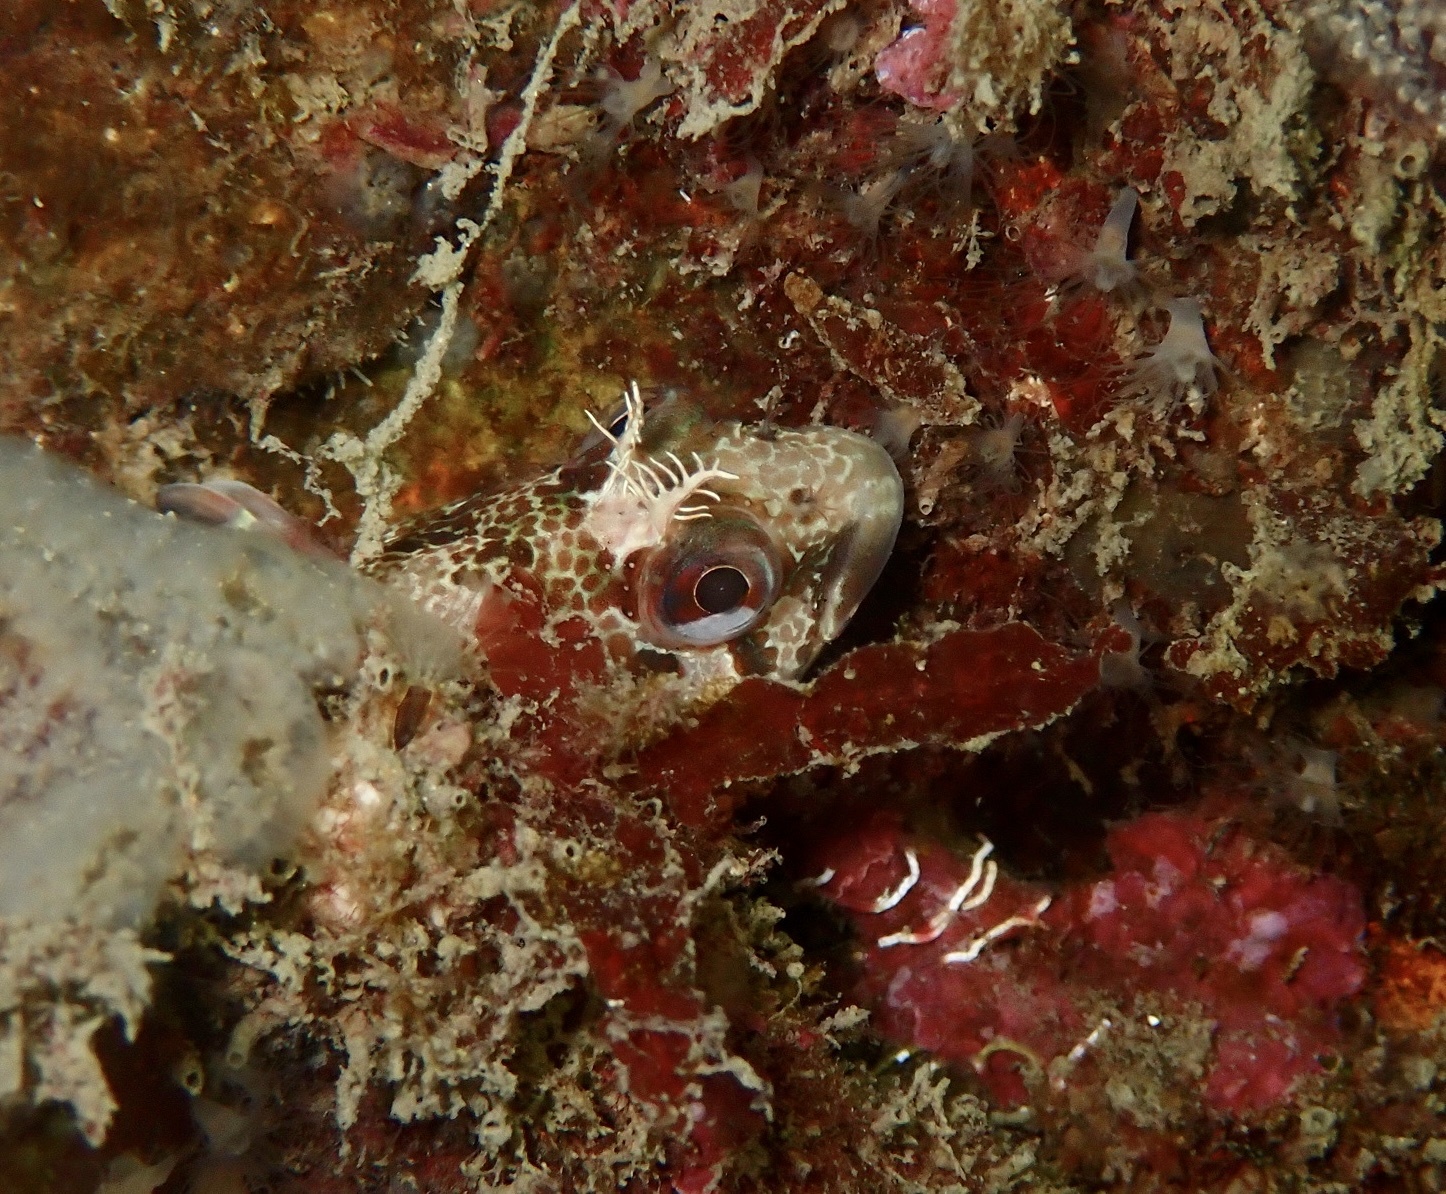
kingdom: Animalia
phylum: Chordata
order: Perciformes
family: Blenniidae
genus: Parablennius
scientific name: Parablennius gattorugine
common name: Tompot blenny
